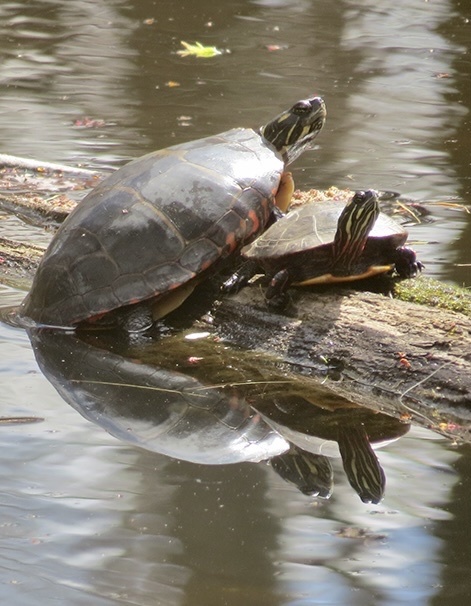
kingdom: Animalia
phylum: Chordata
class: Testudines
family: Emydidae
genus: Chrysemys
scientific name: Chrysemys picta
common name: Painted turtle
